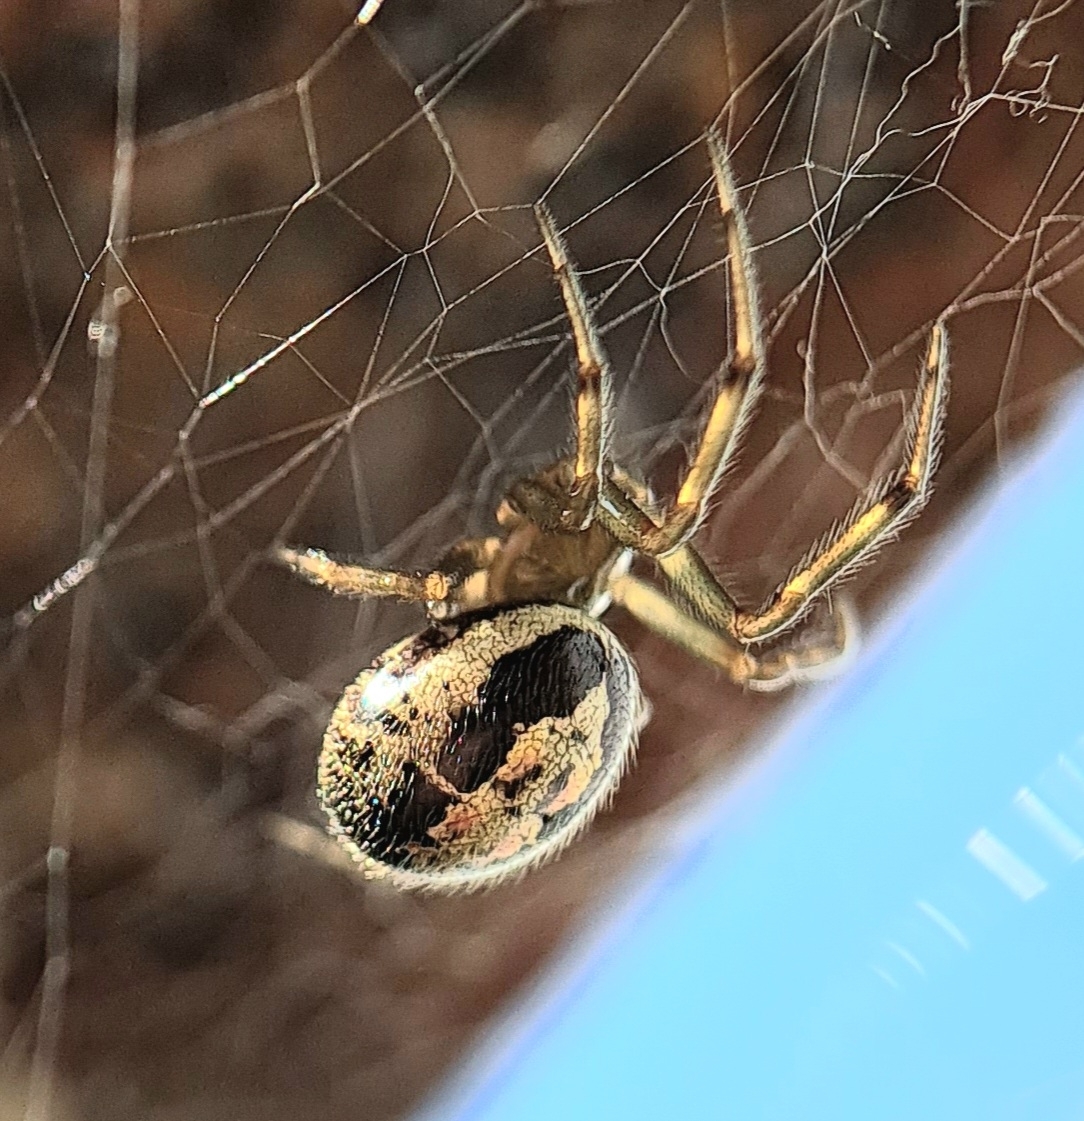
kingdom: Animalia
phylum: Arthropoda
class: Arachnida
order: Araneae
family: Theridiidae
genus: Steatoda
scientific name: Steatoda nobilis
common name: Cobweb weaver
